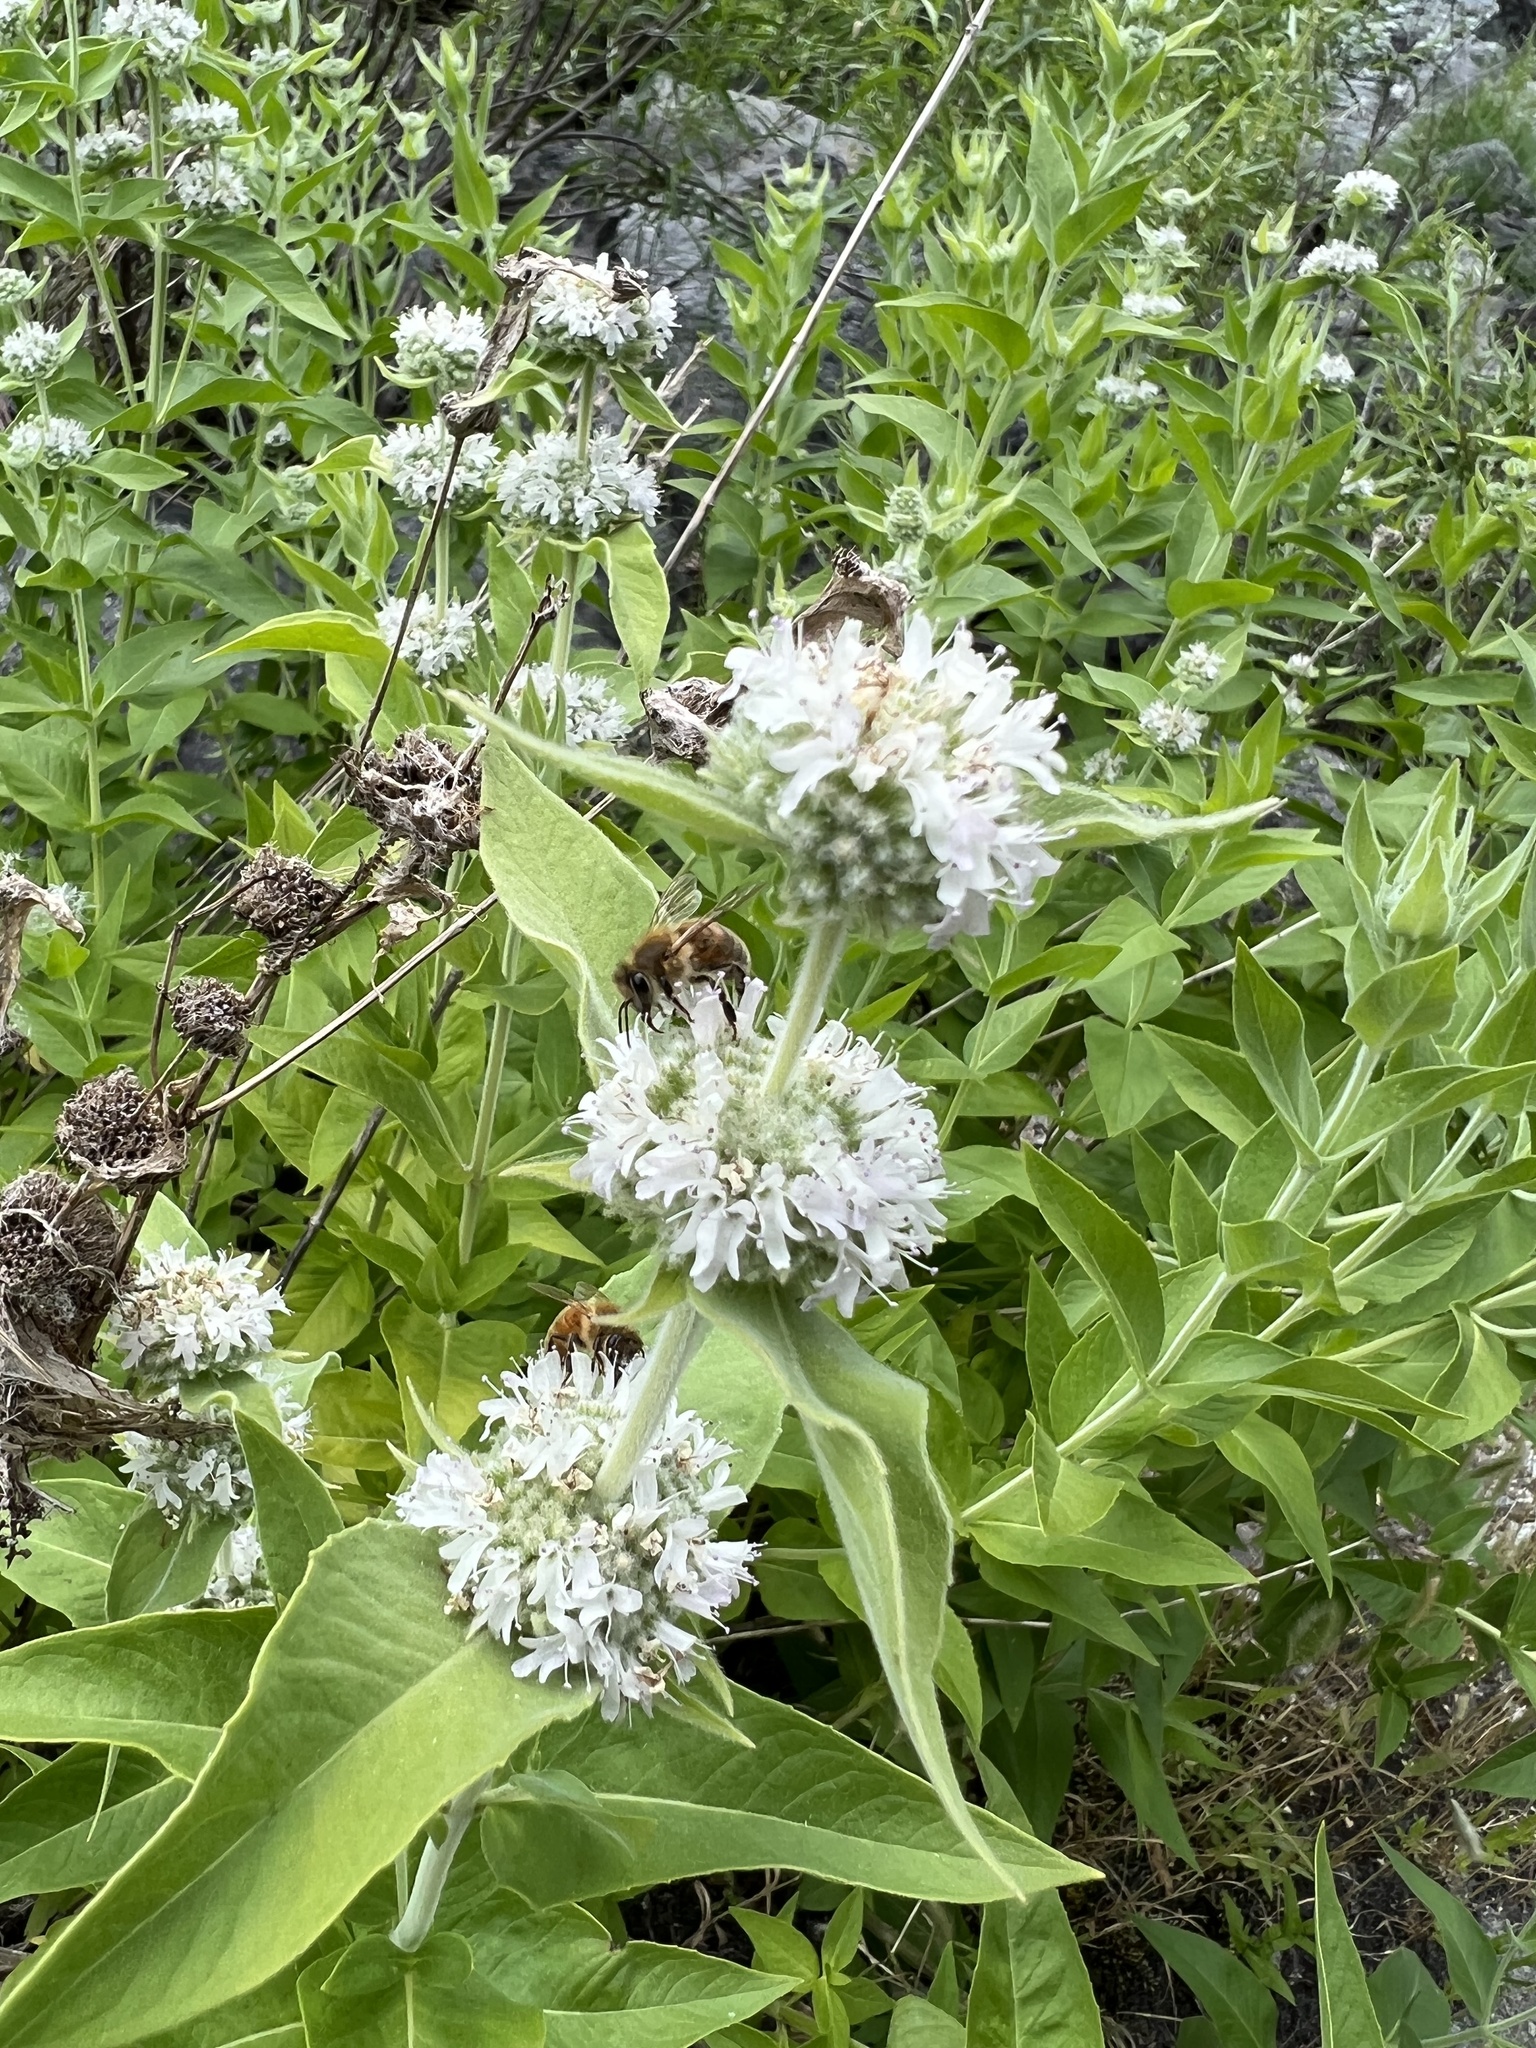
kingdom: Plantae
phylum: Tracheophyta
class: Magnoliopsida
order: Lamiales
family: Lamiaceae
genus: Pycnanthemum
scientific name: Pycnanthemum californicum
